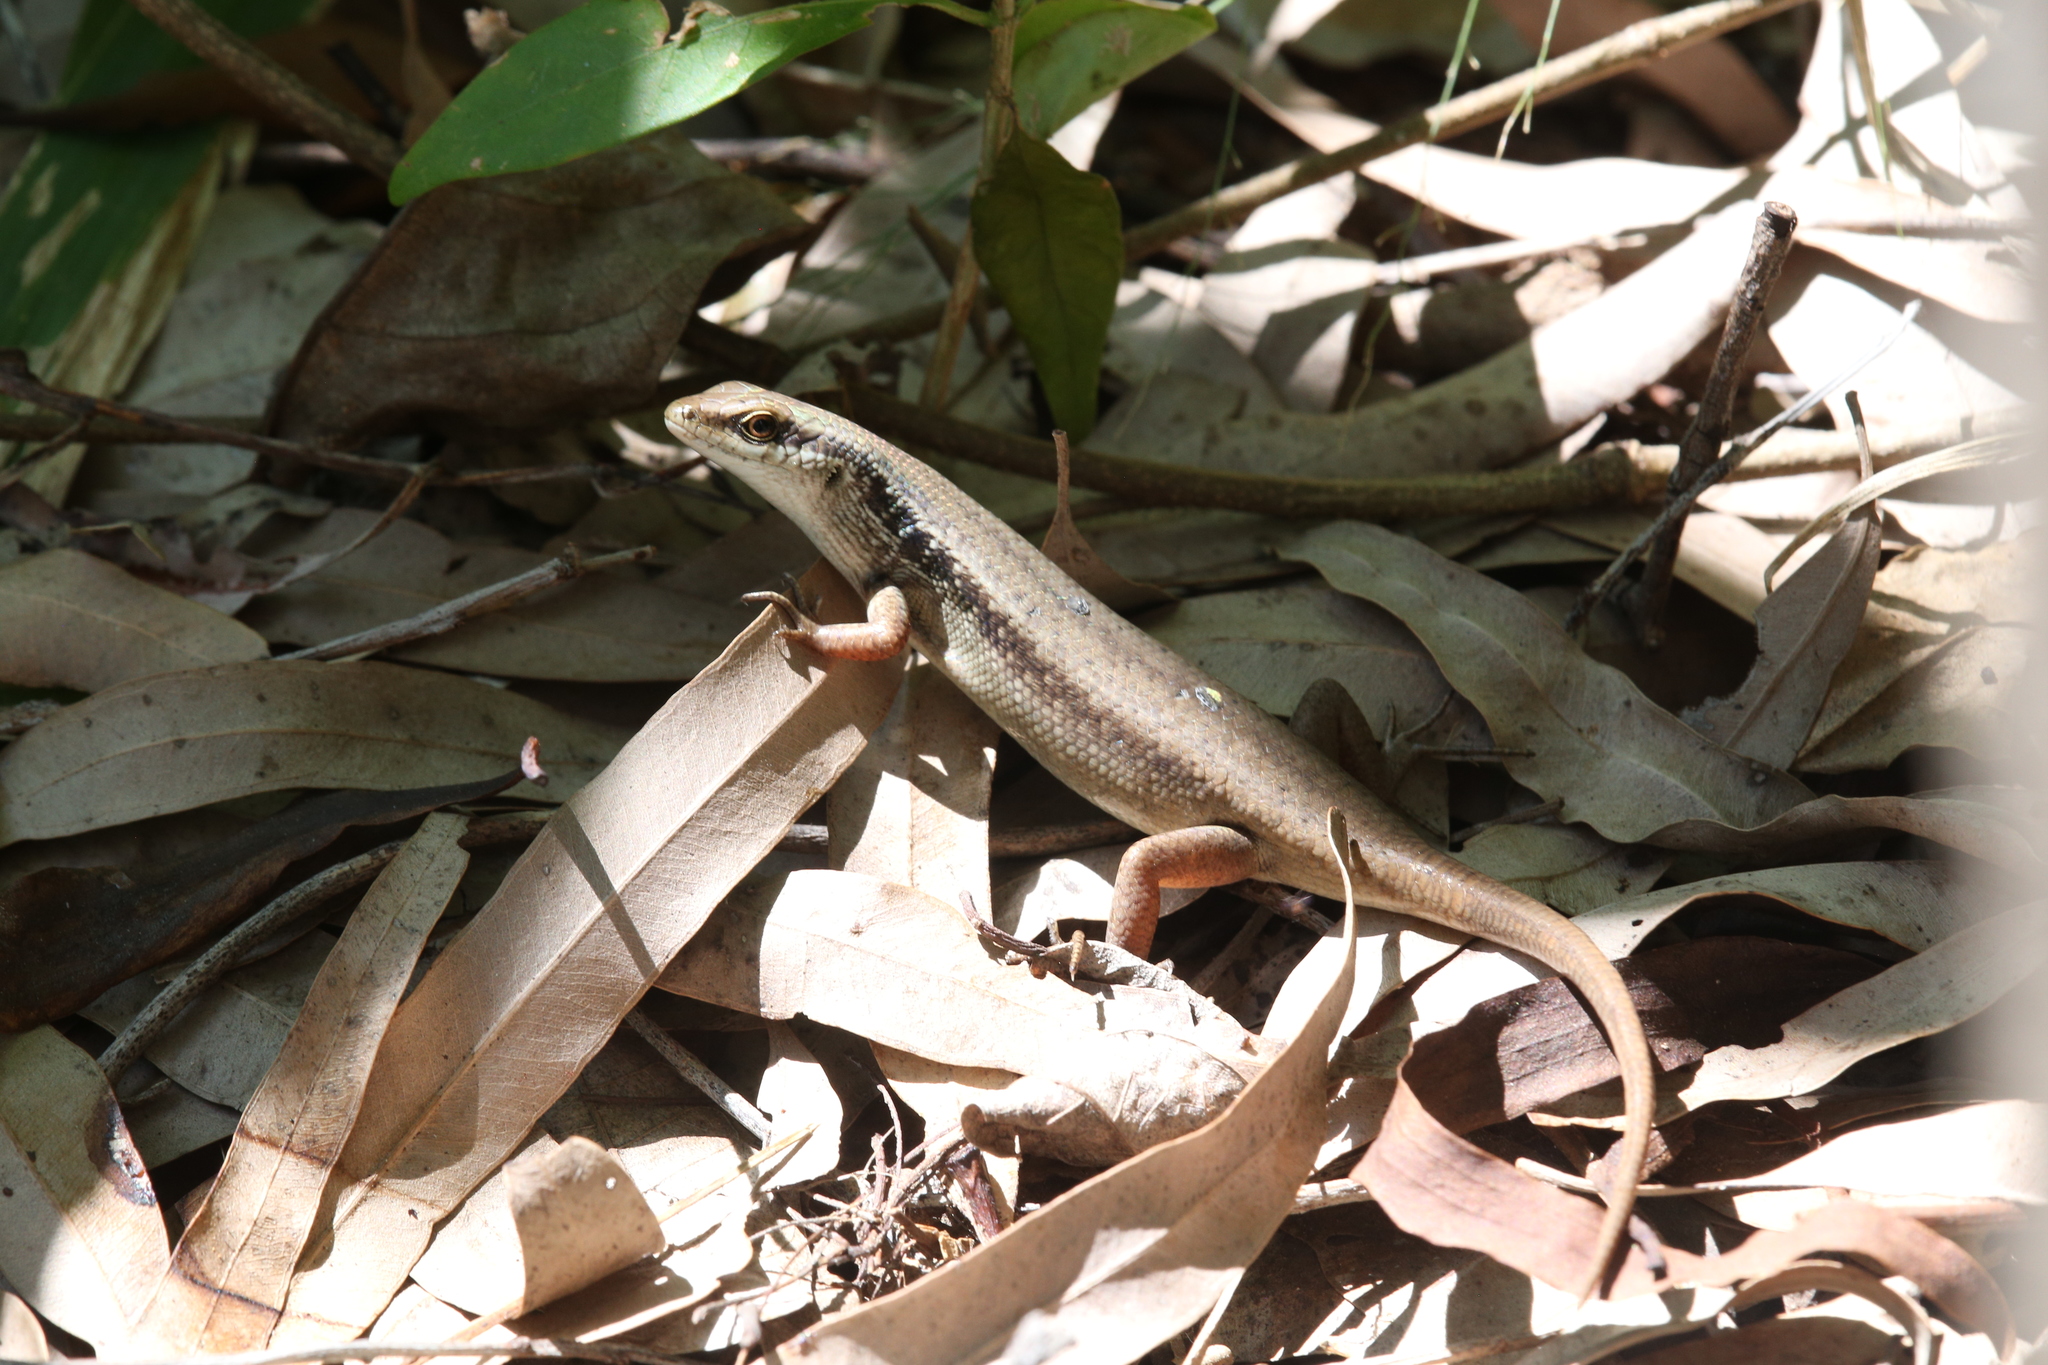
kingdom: Animalia
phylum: Chordata
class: Squamata
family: Scincidae
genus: Carlia
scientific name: Carlia longipes
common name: Closed-litter rainbow-skink
